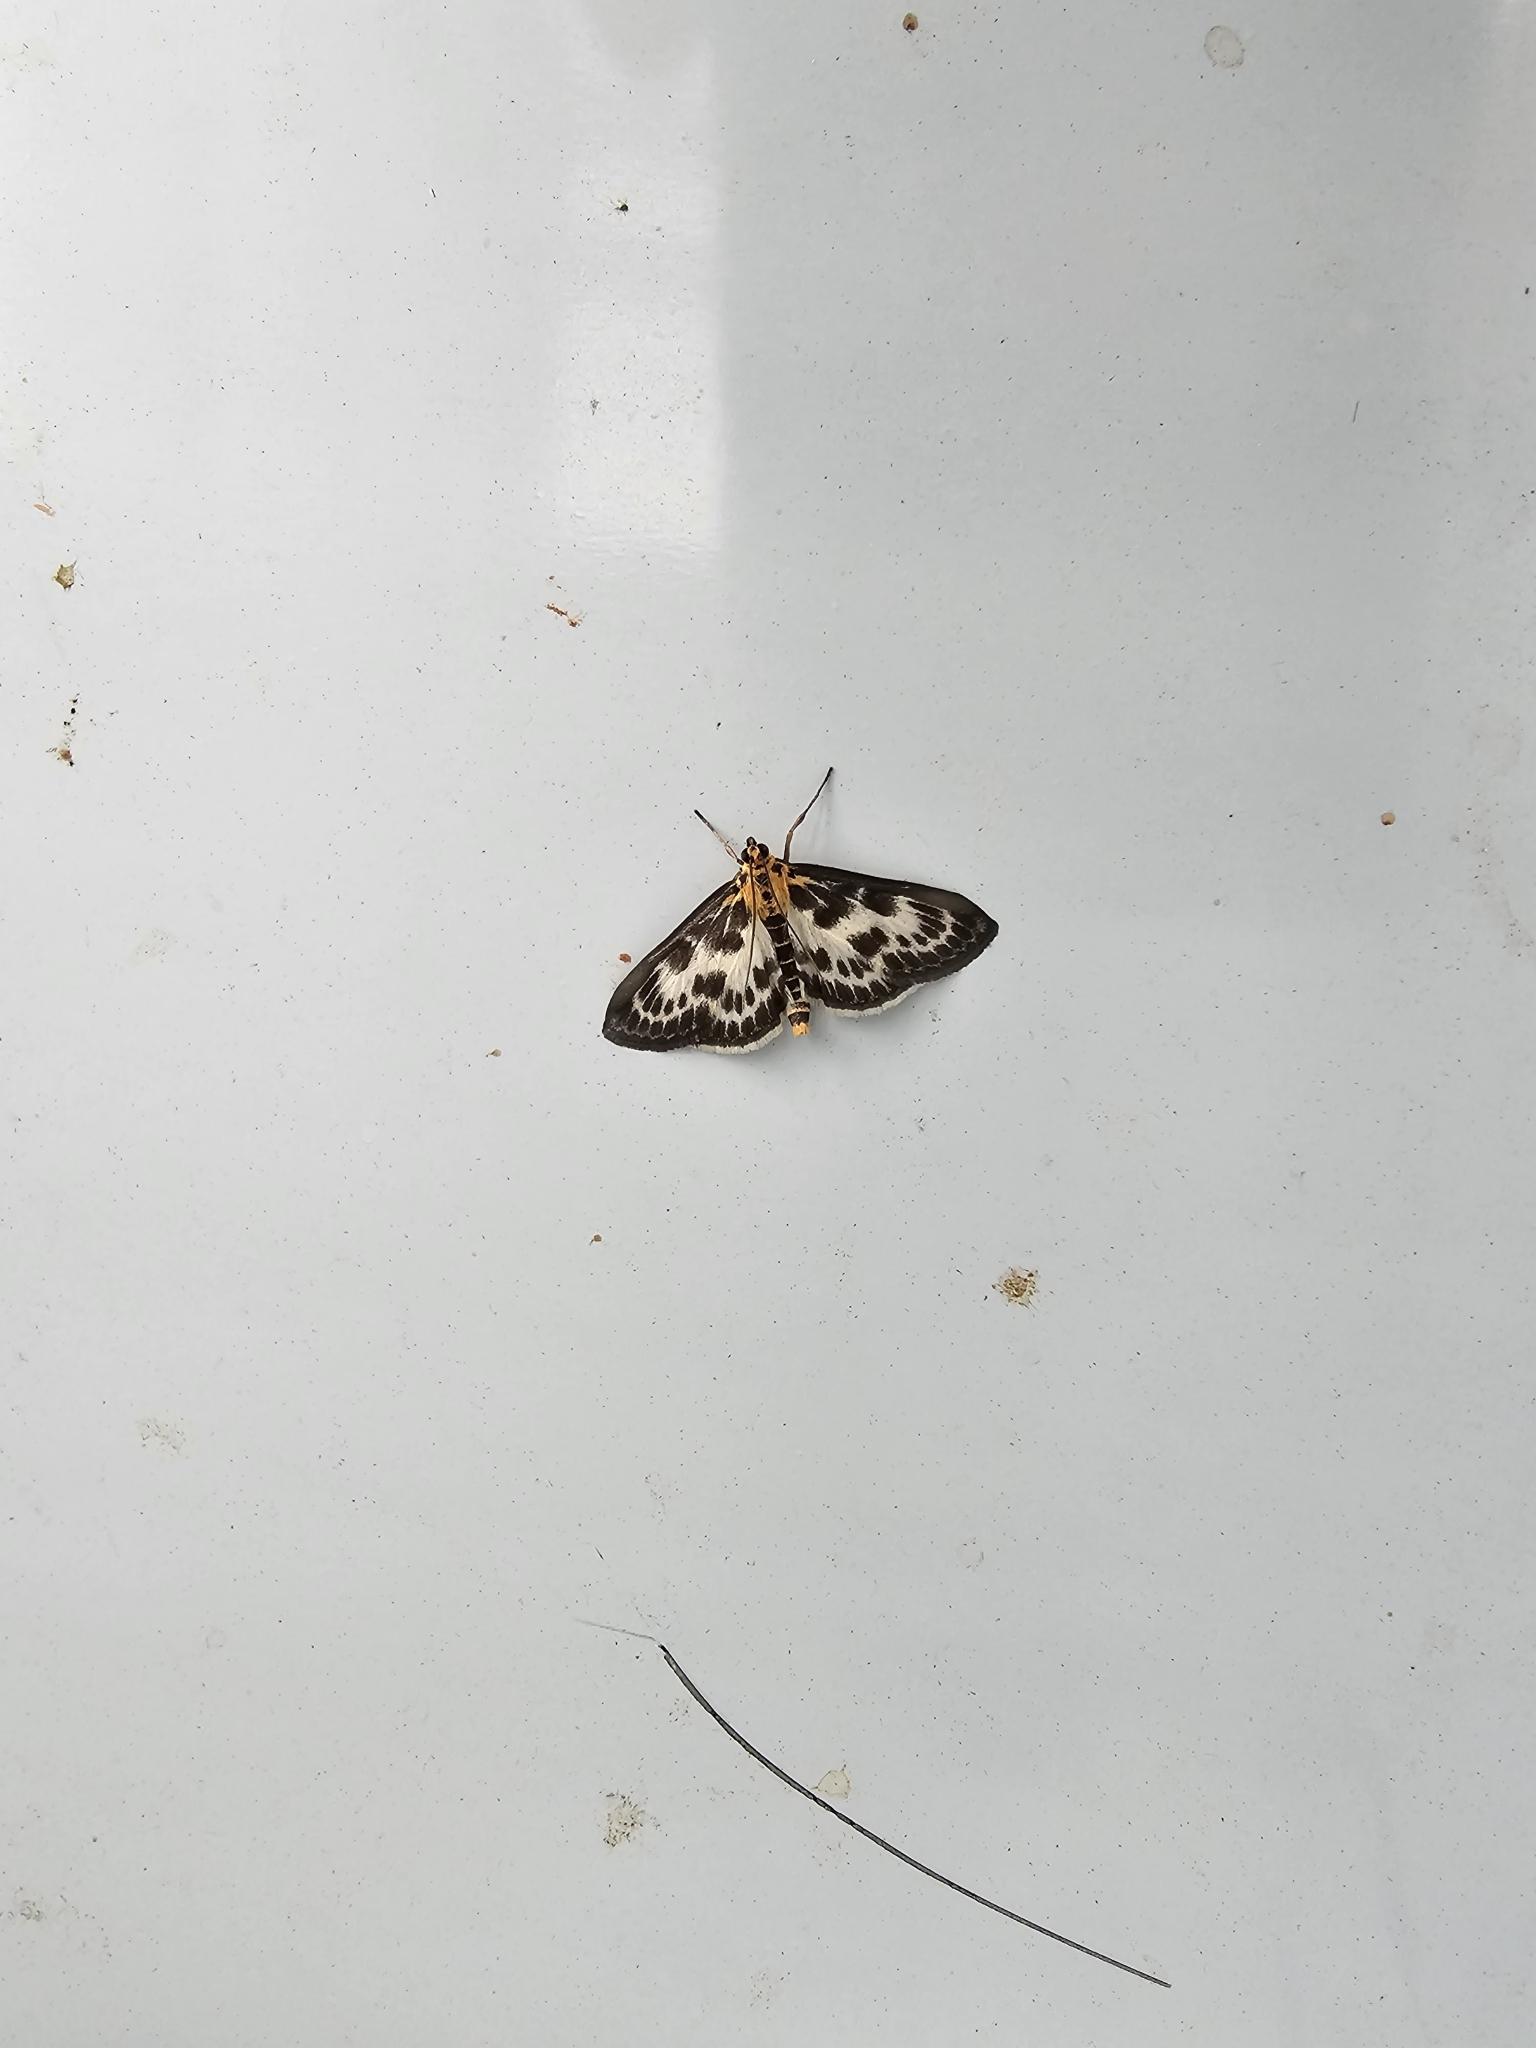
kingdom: Animalia
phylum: Arthropoda
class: Insecta
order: Lepidoptera
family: Crambidae
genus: Anania
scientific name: Anania hortulata
